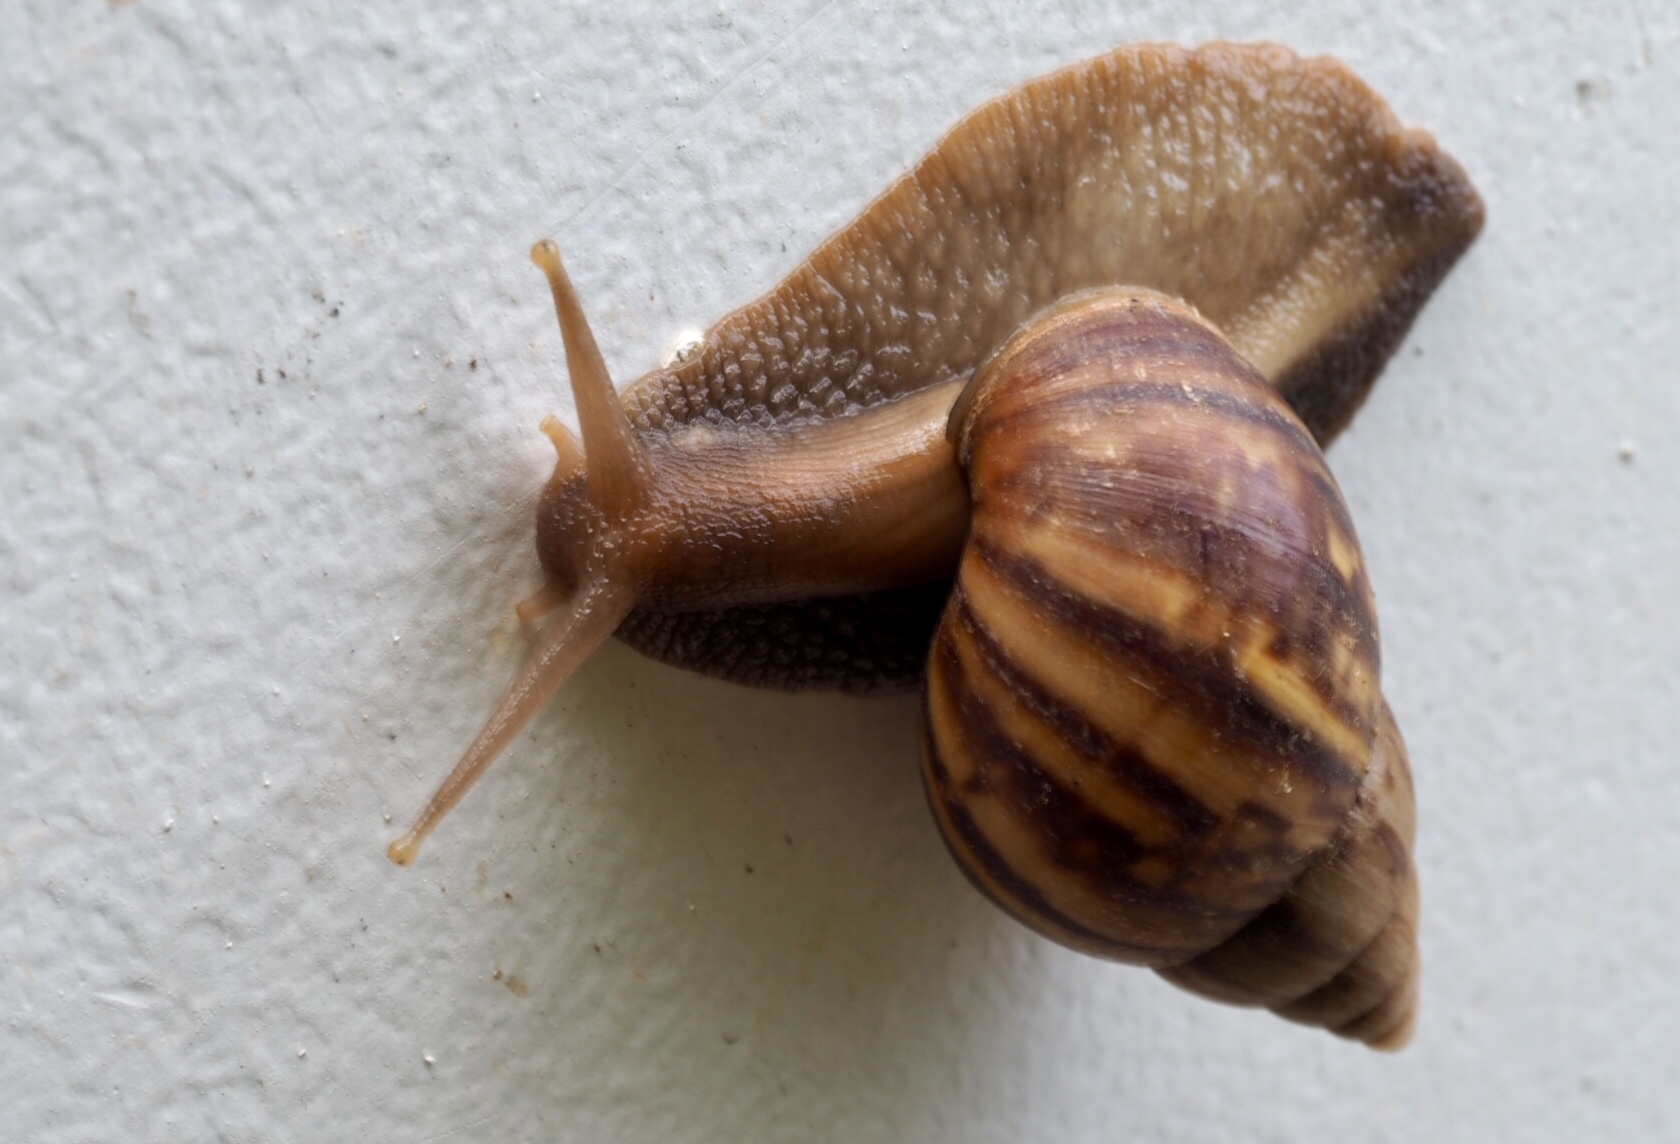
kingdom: Animalia
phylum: Mollusca
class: Gastropoda
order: Stylommatophora
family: Achatinidae
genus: Lissachatina
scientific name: Lissachatina fulica
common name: Giant african snail
